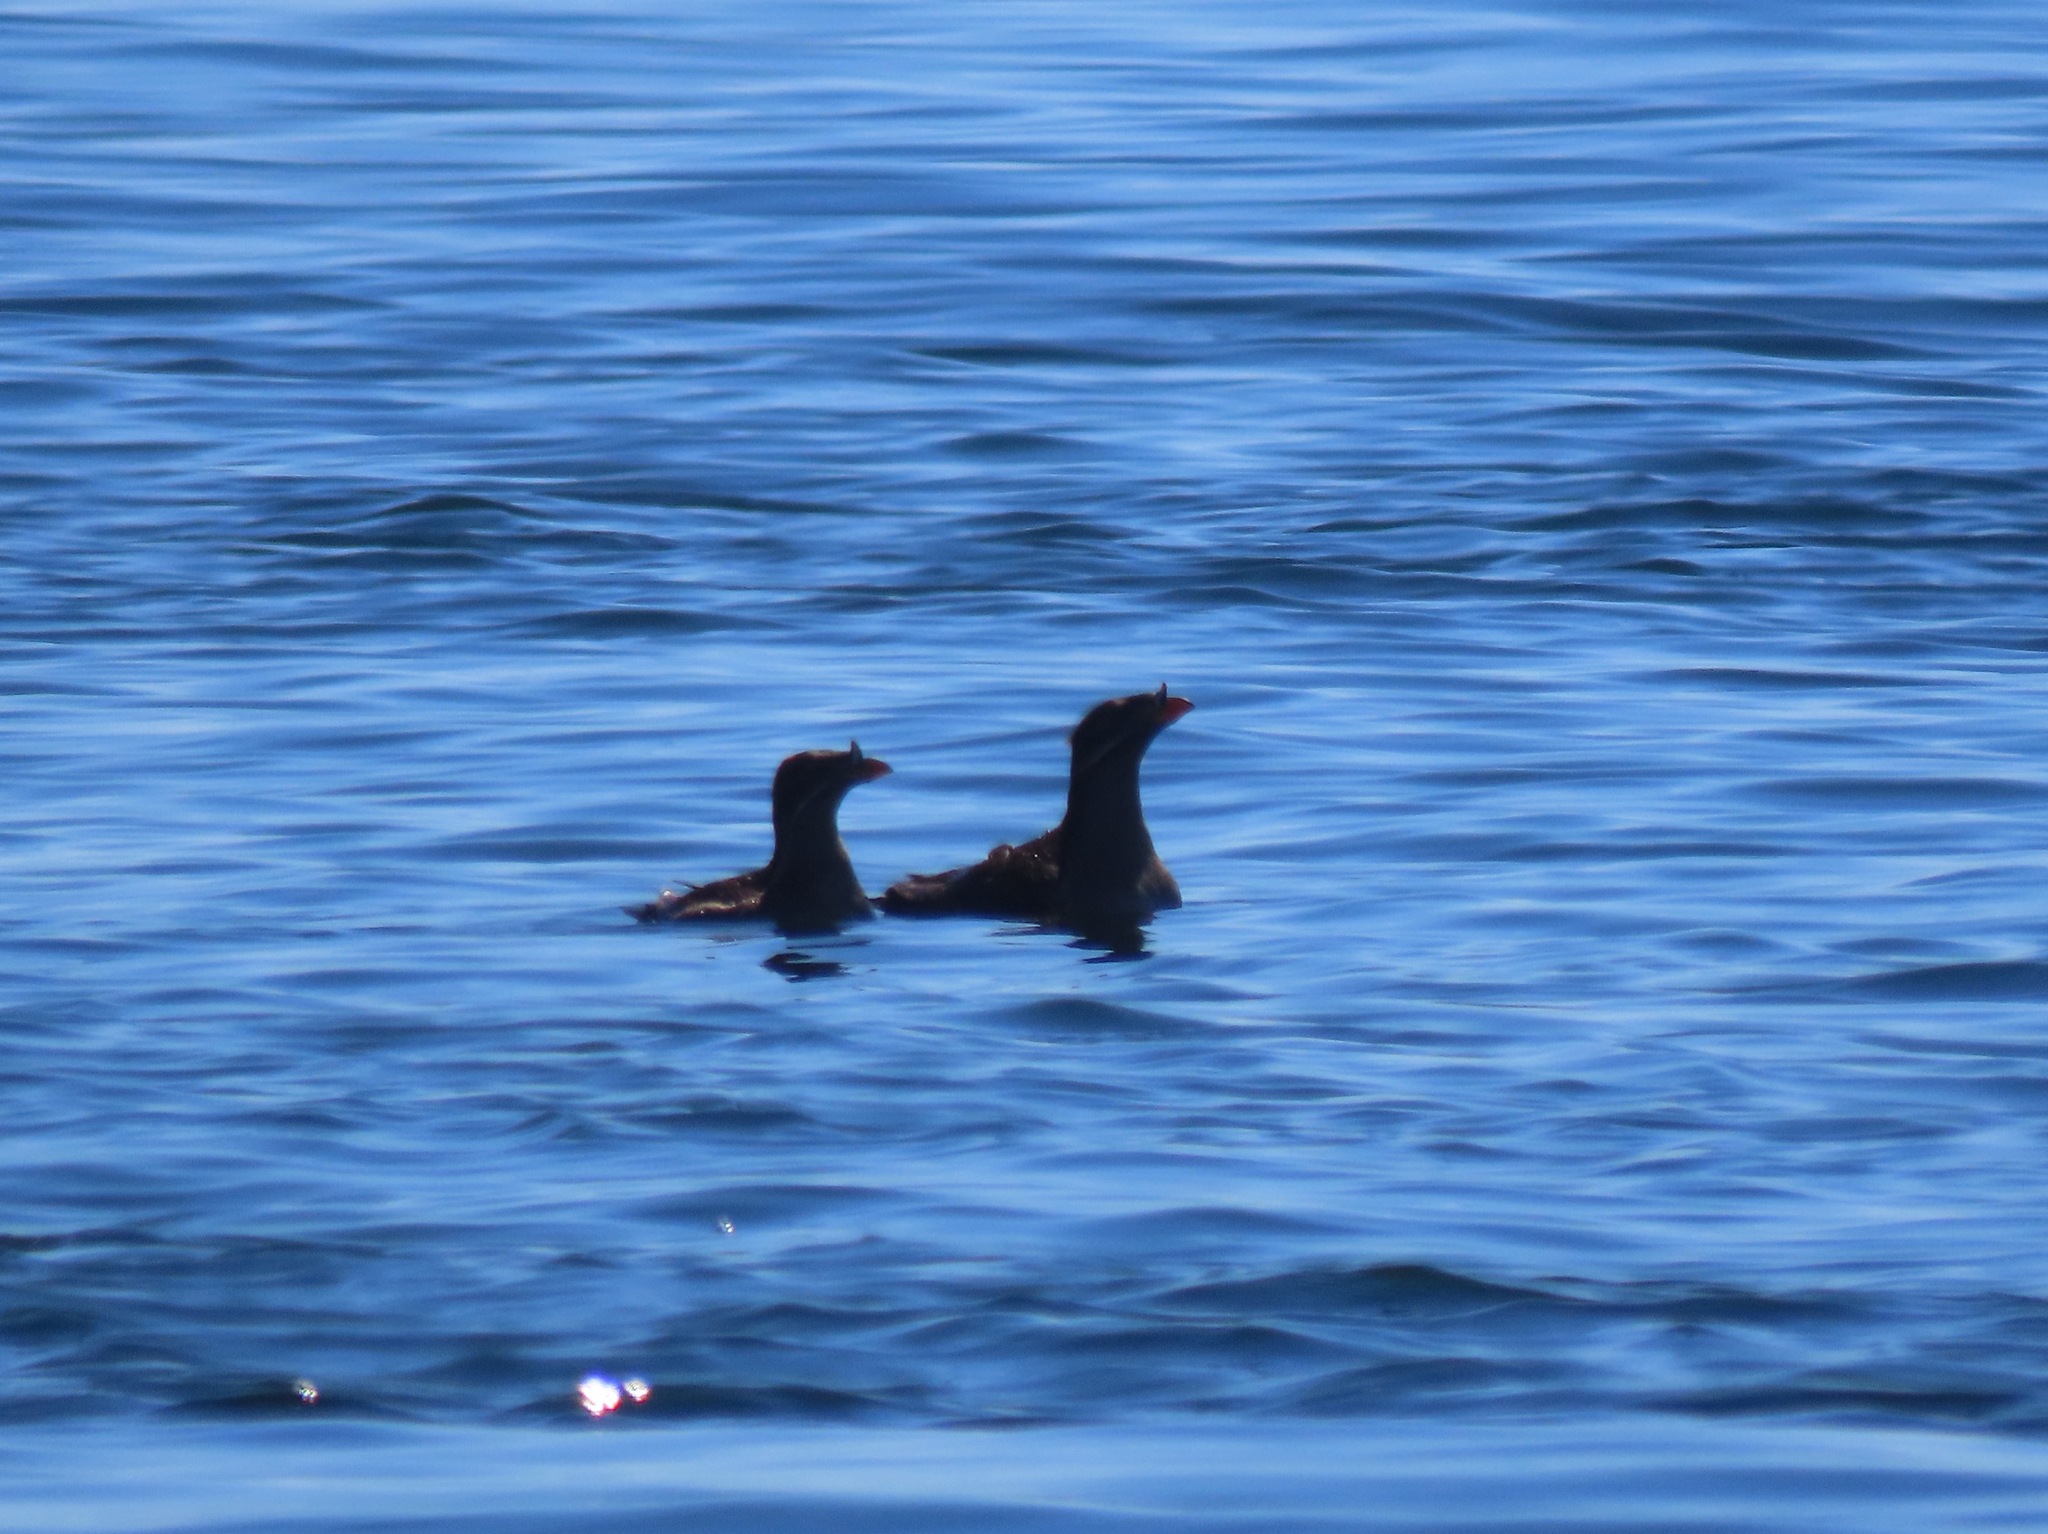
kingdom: Animalia
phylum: Chordata
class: Aves
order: Charadriiformes
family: Alcidae
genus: Cerorhinca
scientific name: Cerorhinca monocerata
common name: Rhinoceros auklet
